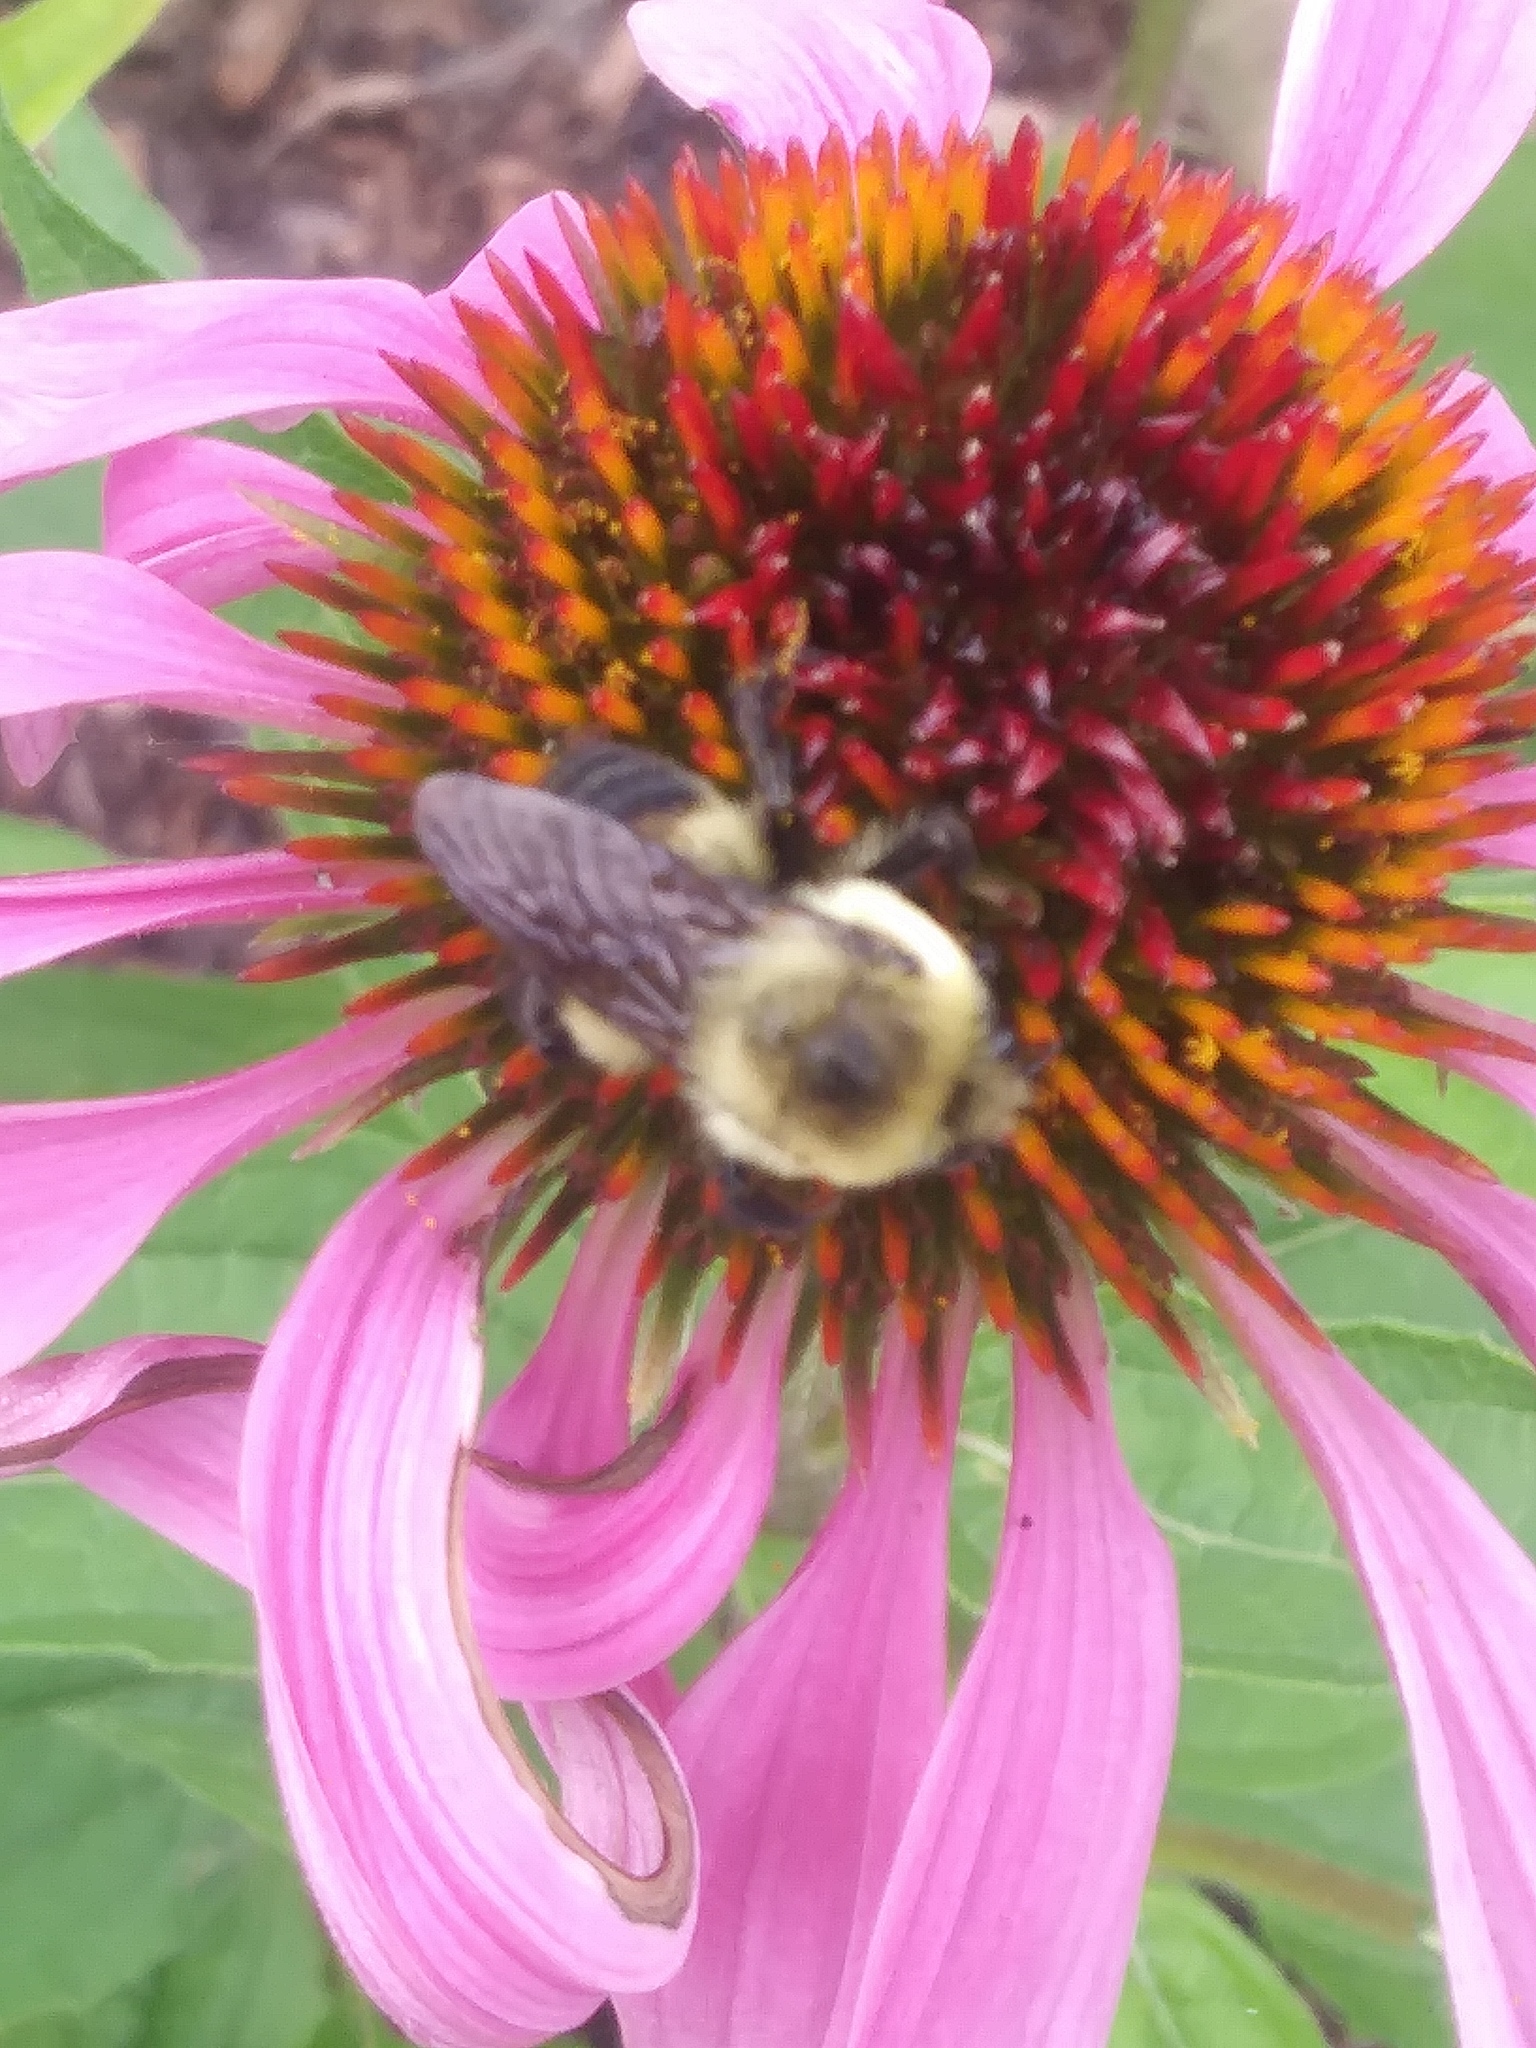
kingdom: Animalia
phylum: Arthropoda
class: Insecta
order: Hymenoptera
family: Apidae
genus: Bombus
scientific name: Bombus griseocollis
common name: Brown-belted bumble bee
